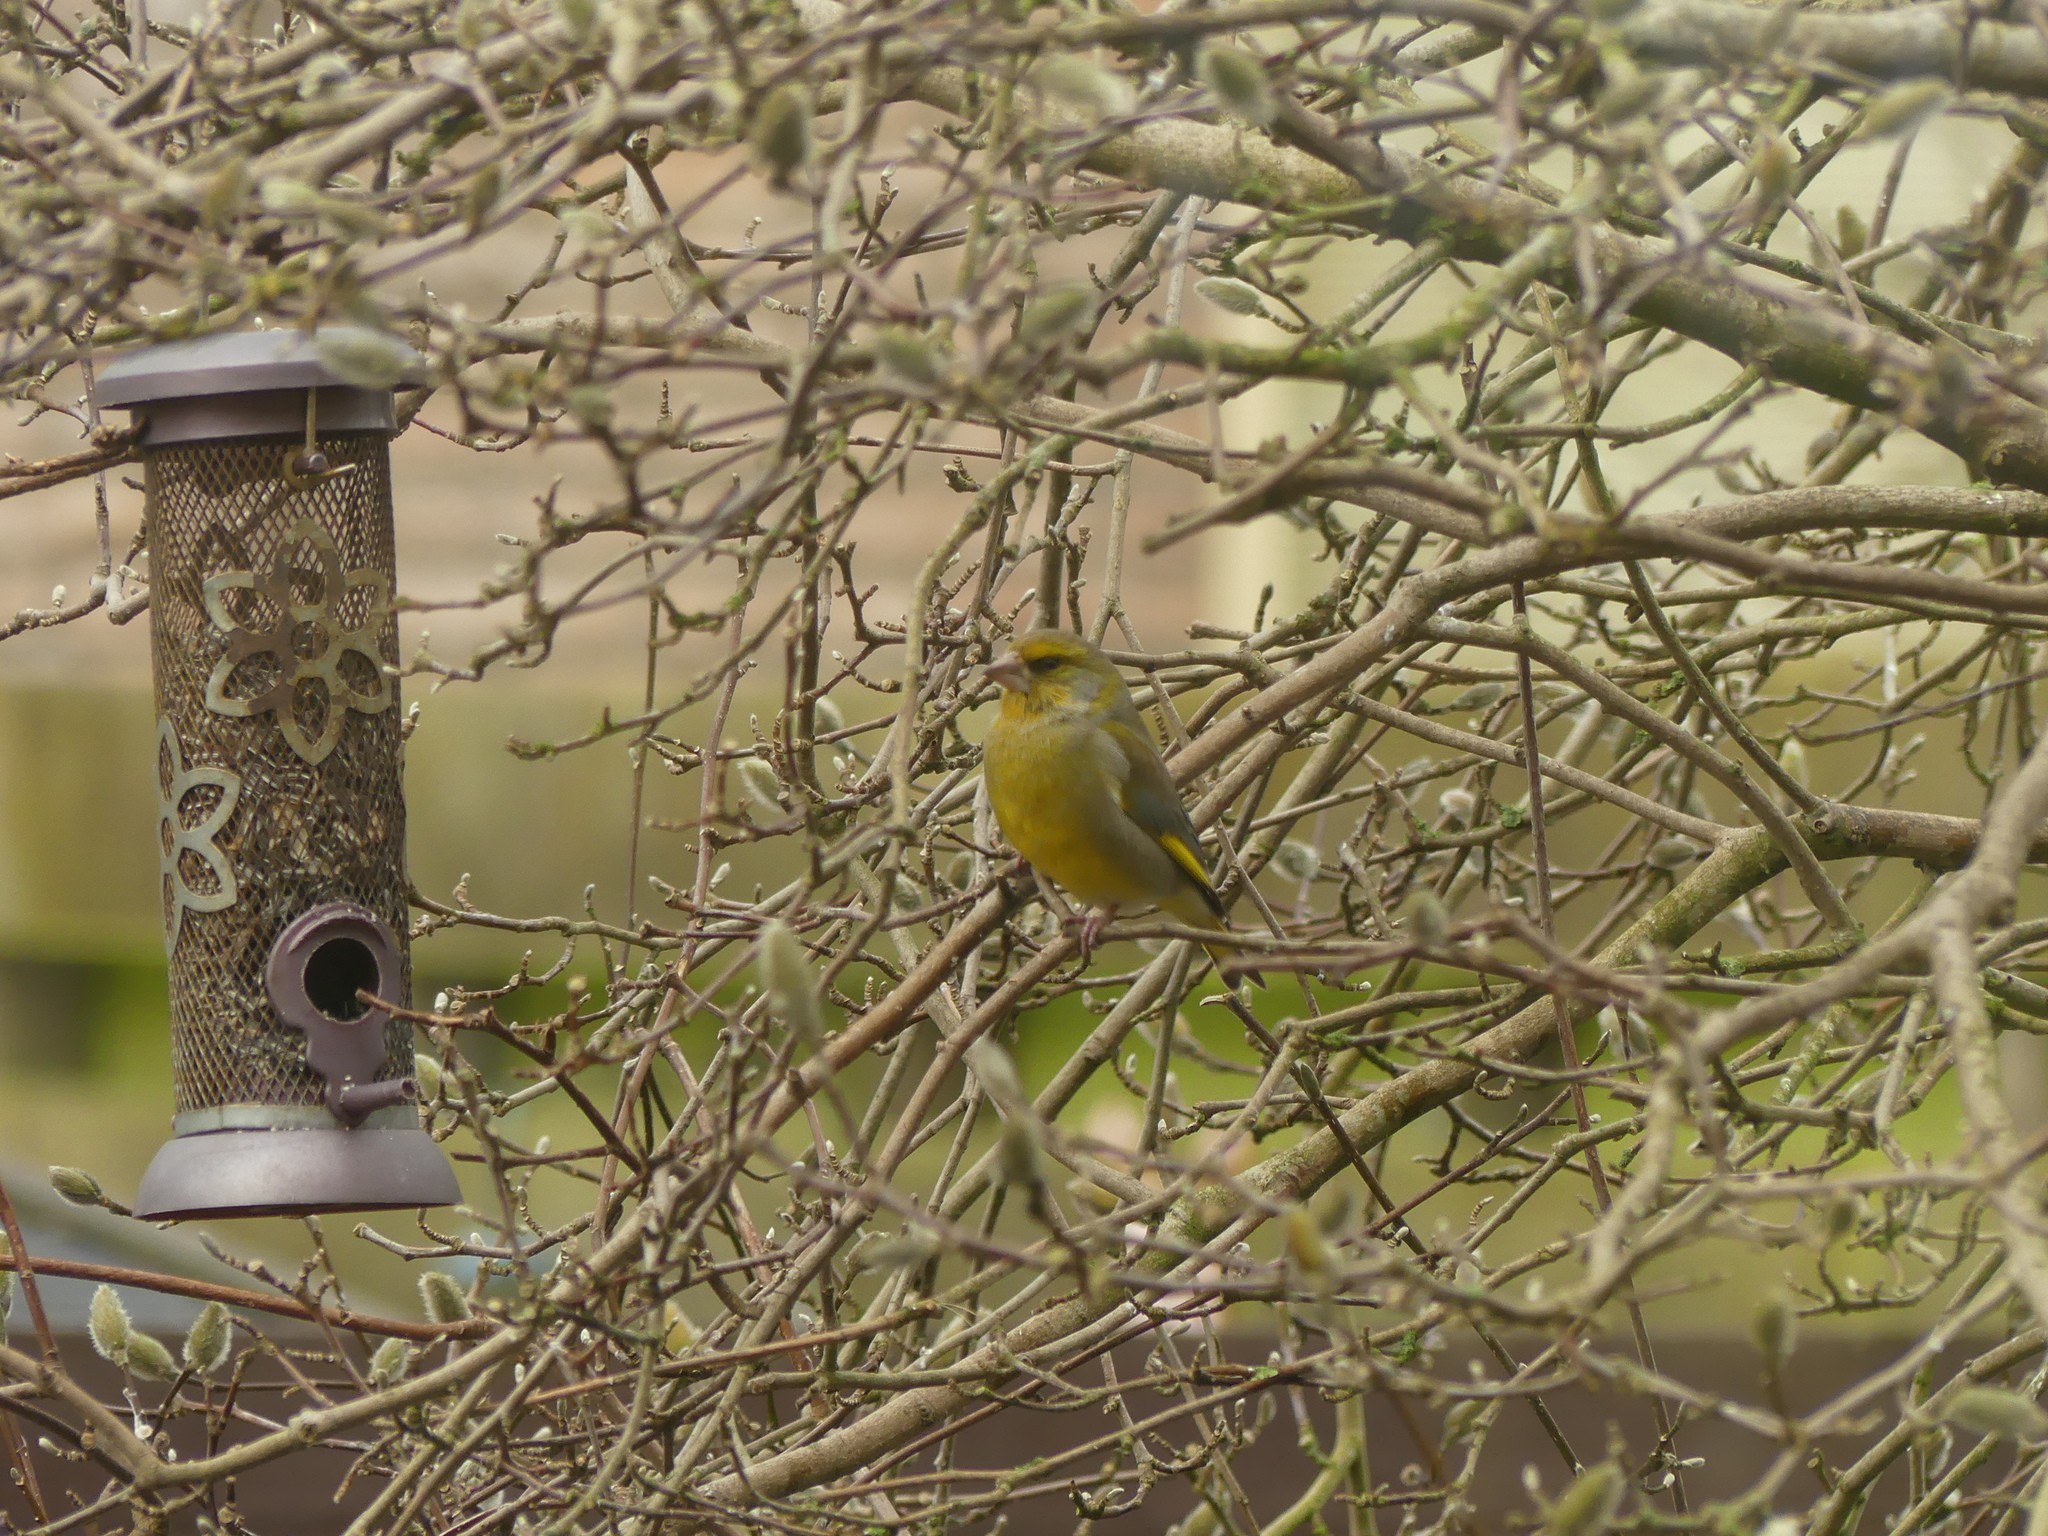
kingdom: Plantae
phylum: Tracheophyta
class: Liliopsida
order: Poales
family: Poaceae
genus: Chloris
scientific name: Chloris chloris
